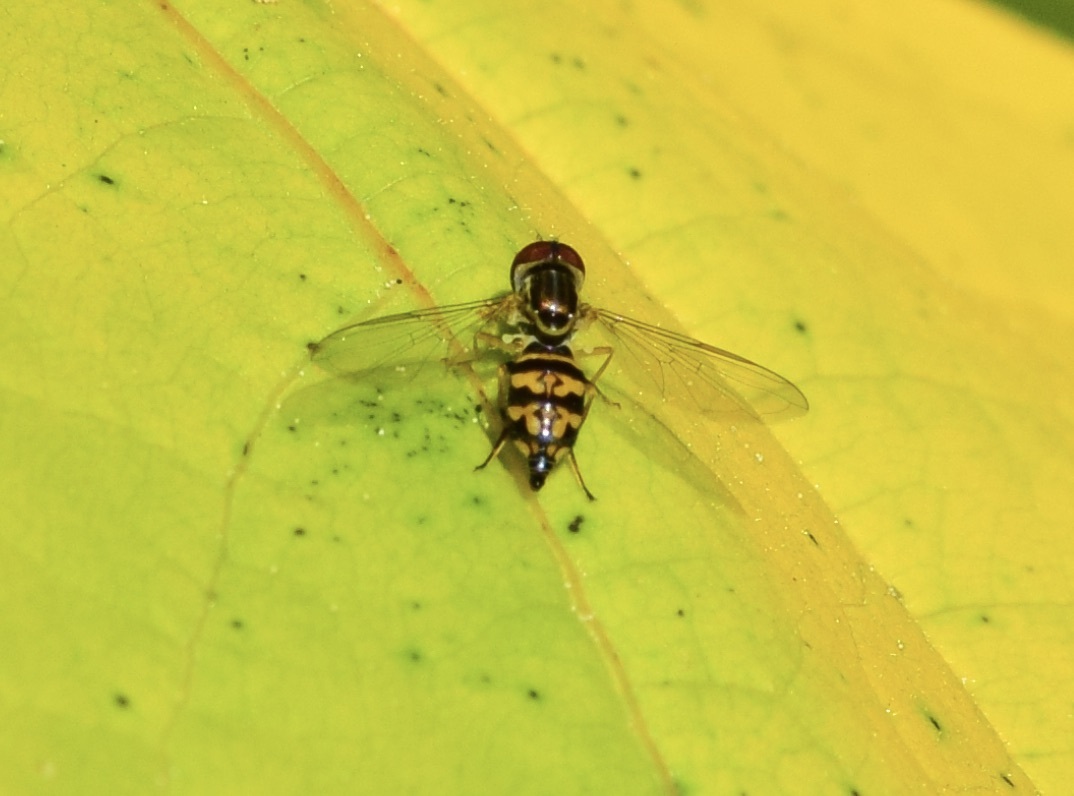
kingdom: Animalia
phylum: Arthropoda
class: Insecta
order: Diptera
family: Syrphidae
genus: Toxomerus
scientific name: Toxomerus geminatus
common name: Eastern calligrapher
